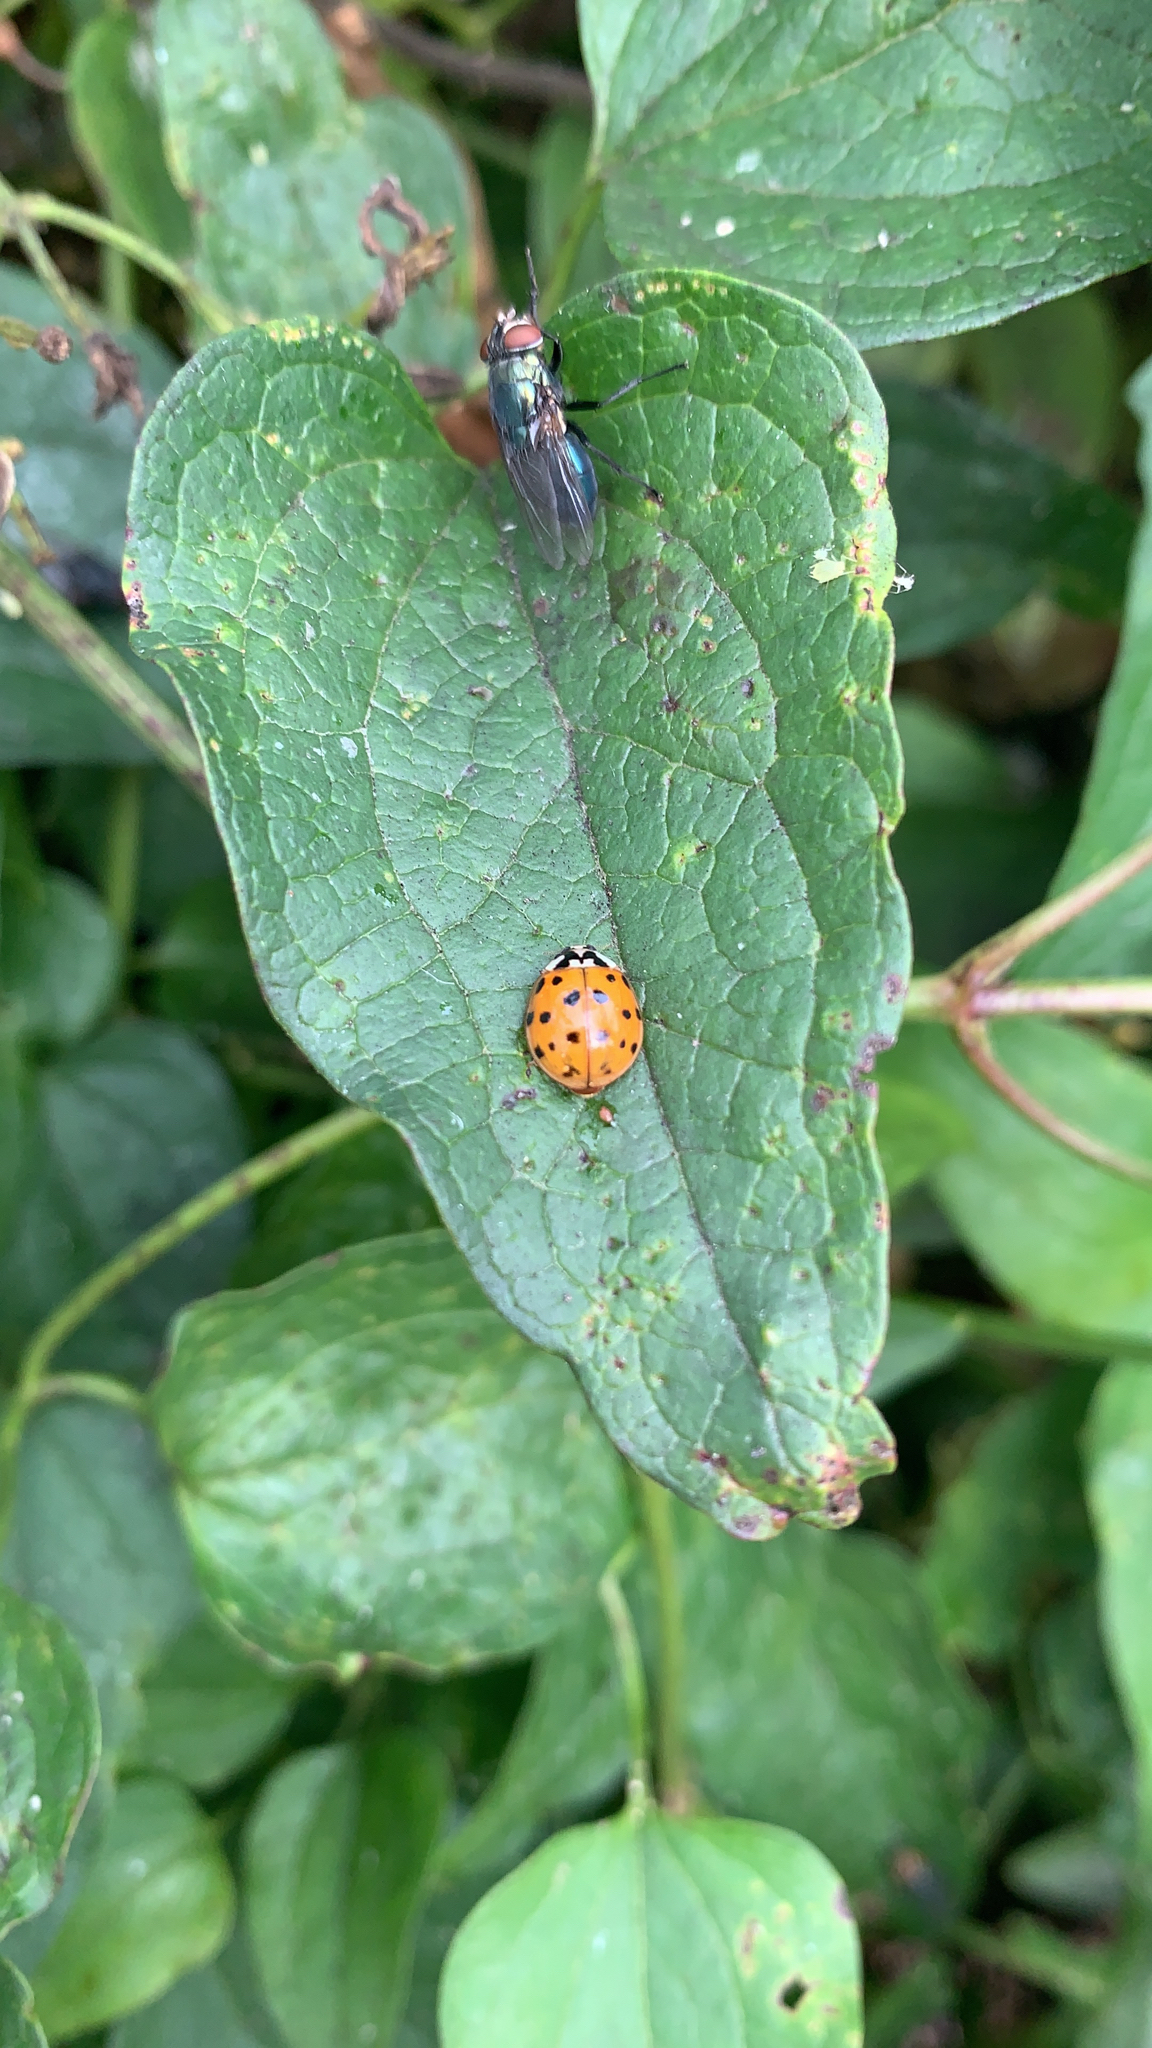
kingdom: Animalia
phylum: Arthropoda
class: Insecta
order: Coleoptera
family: Coccinellidae
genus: Harmonia
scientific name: Harmonia axyridis
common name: Harlequin ladybird
